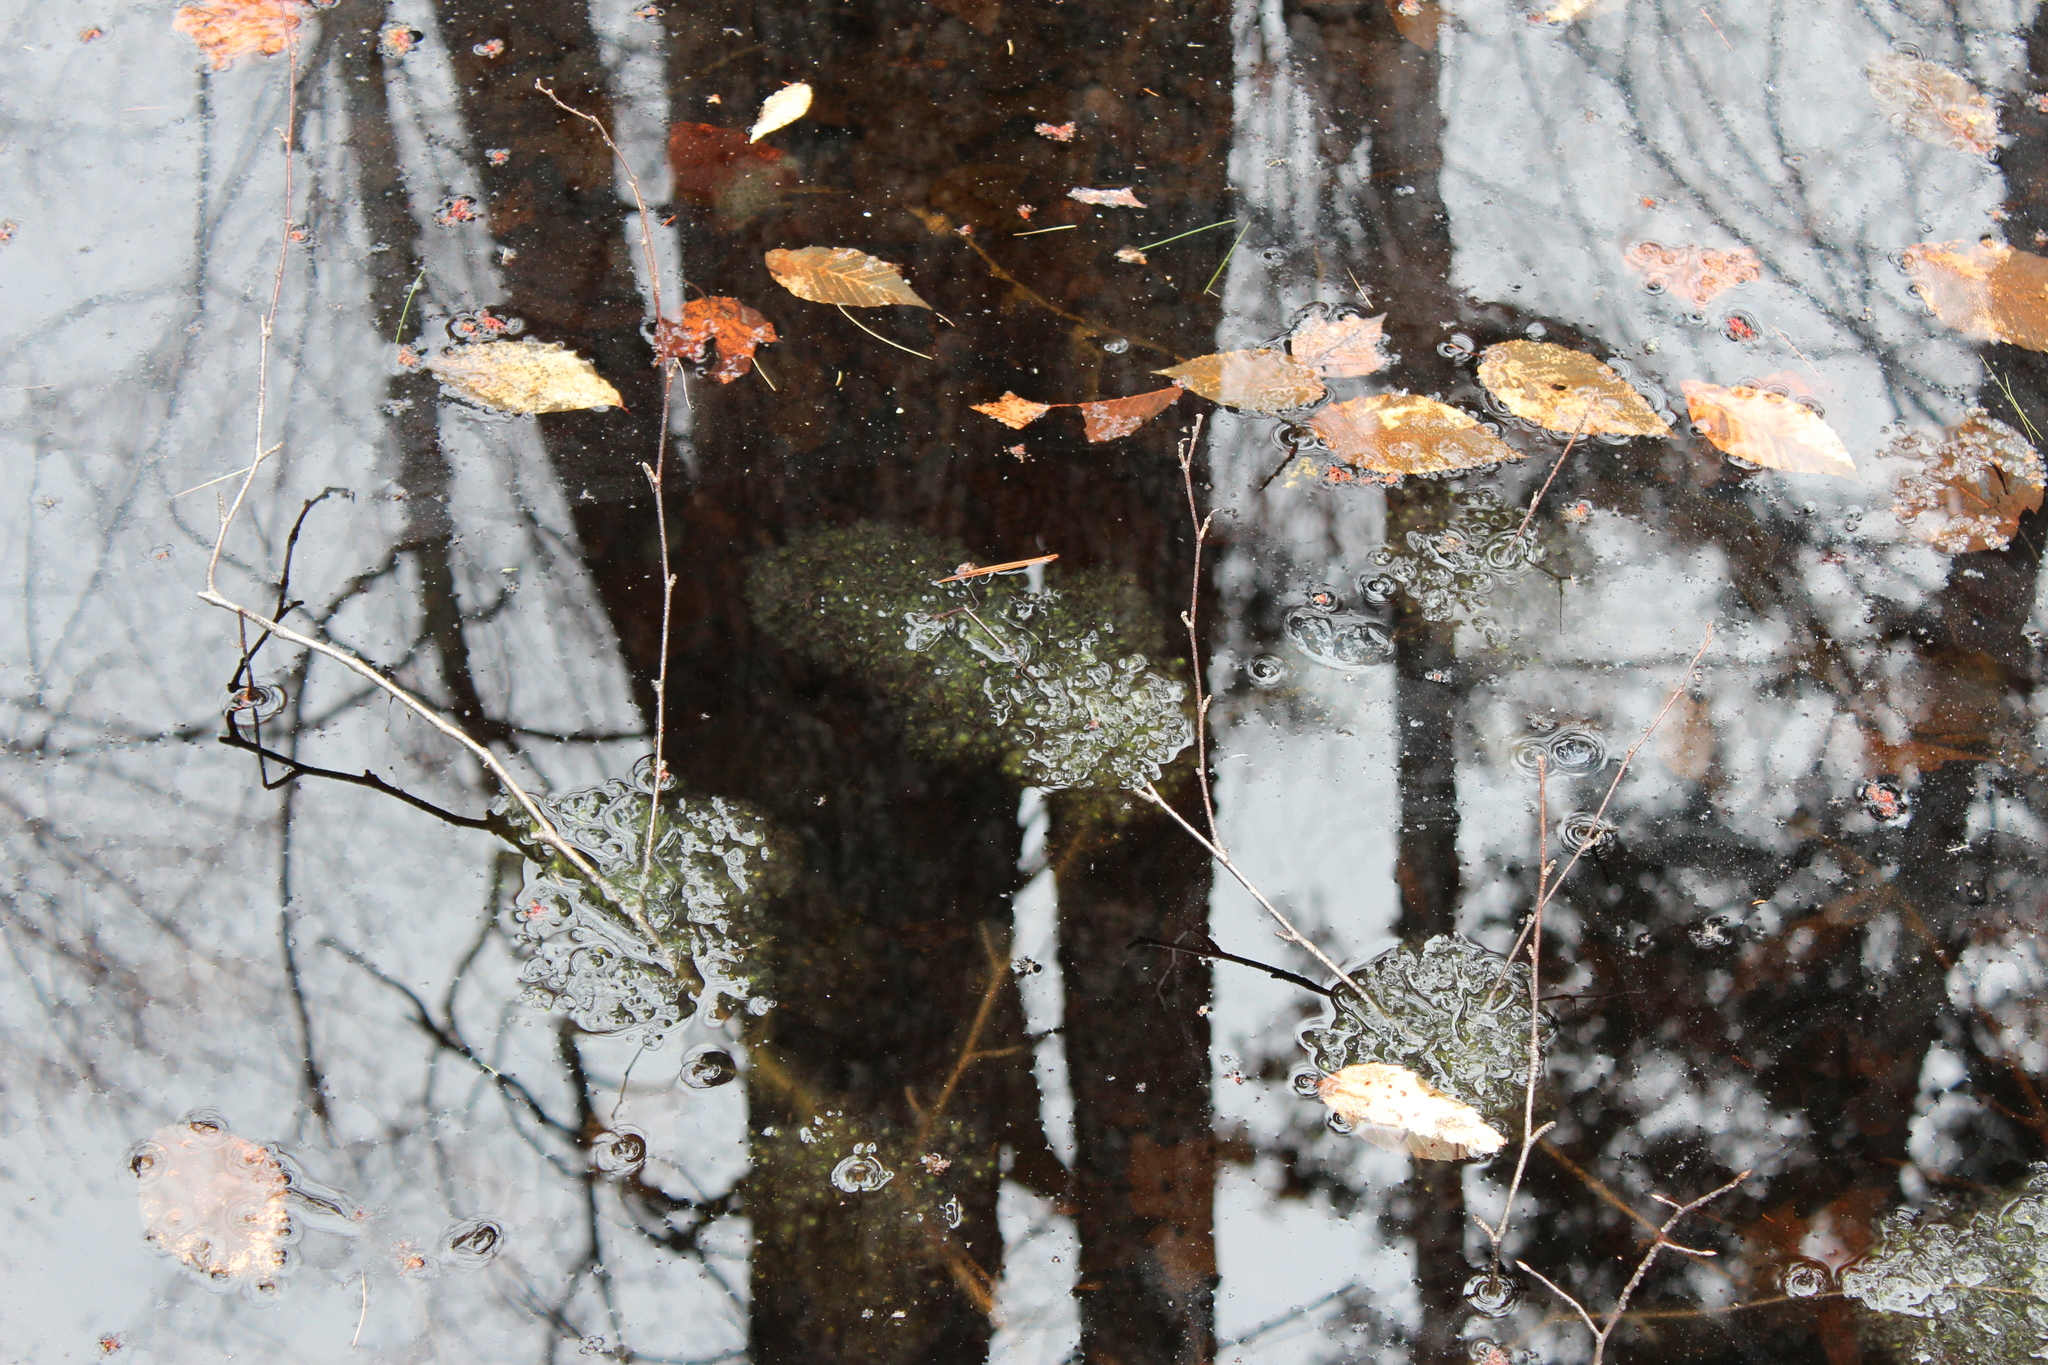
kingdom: Animalia
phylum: Chordata
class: Amphibia
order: Anura
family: Ranidae
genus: Lithobates
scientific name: Lithobates sylvaticus
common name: Wood frog
